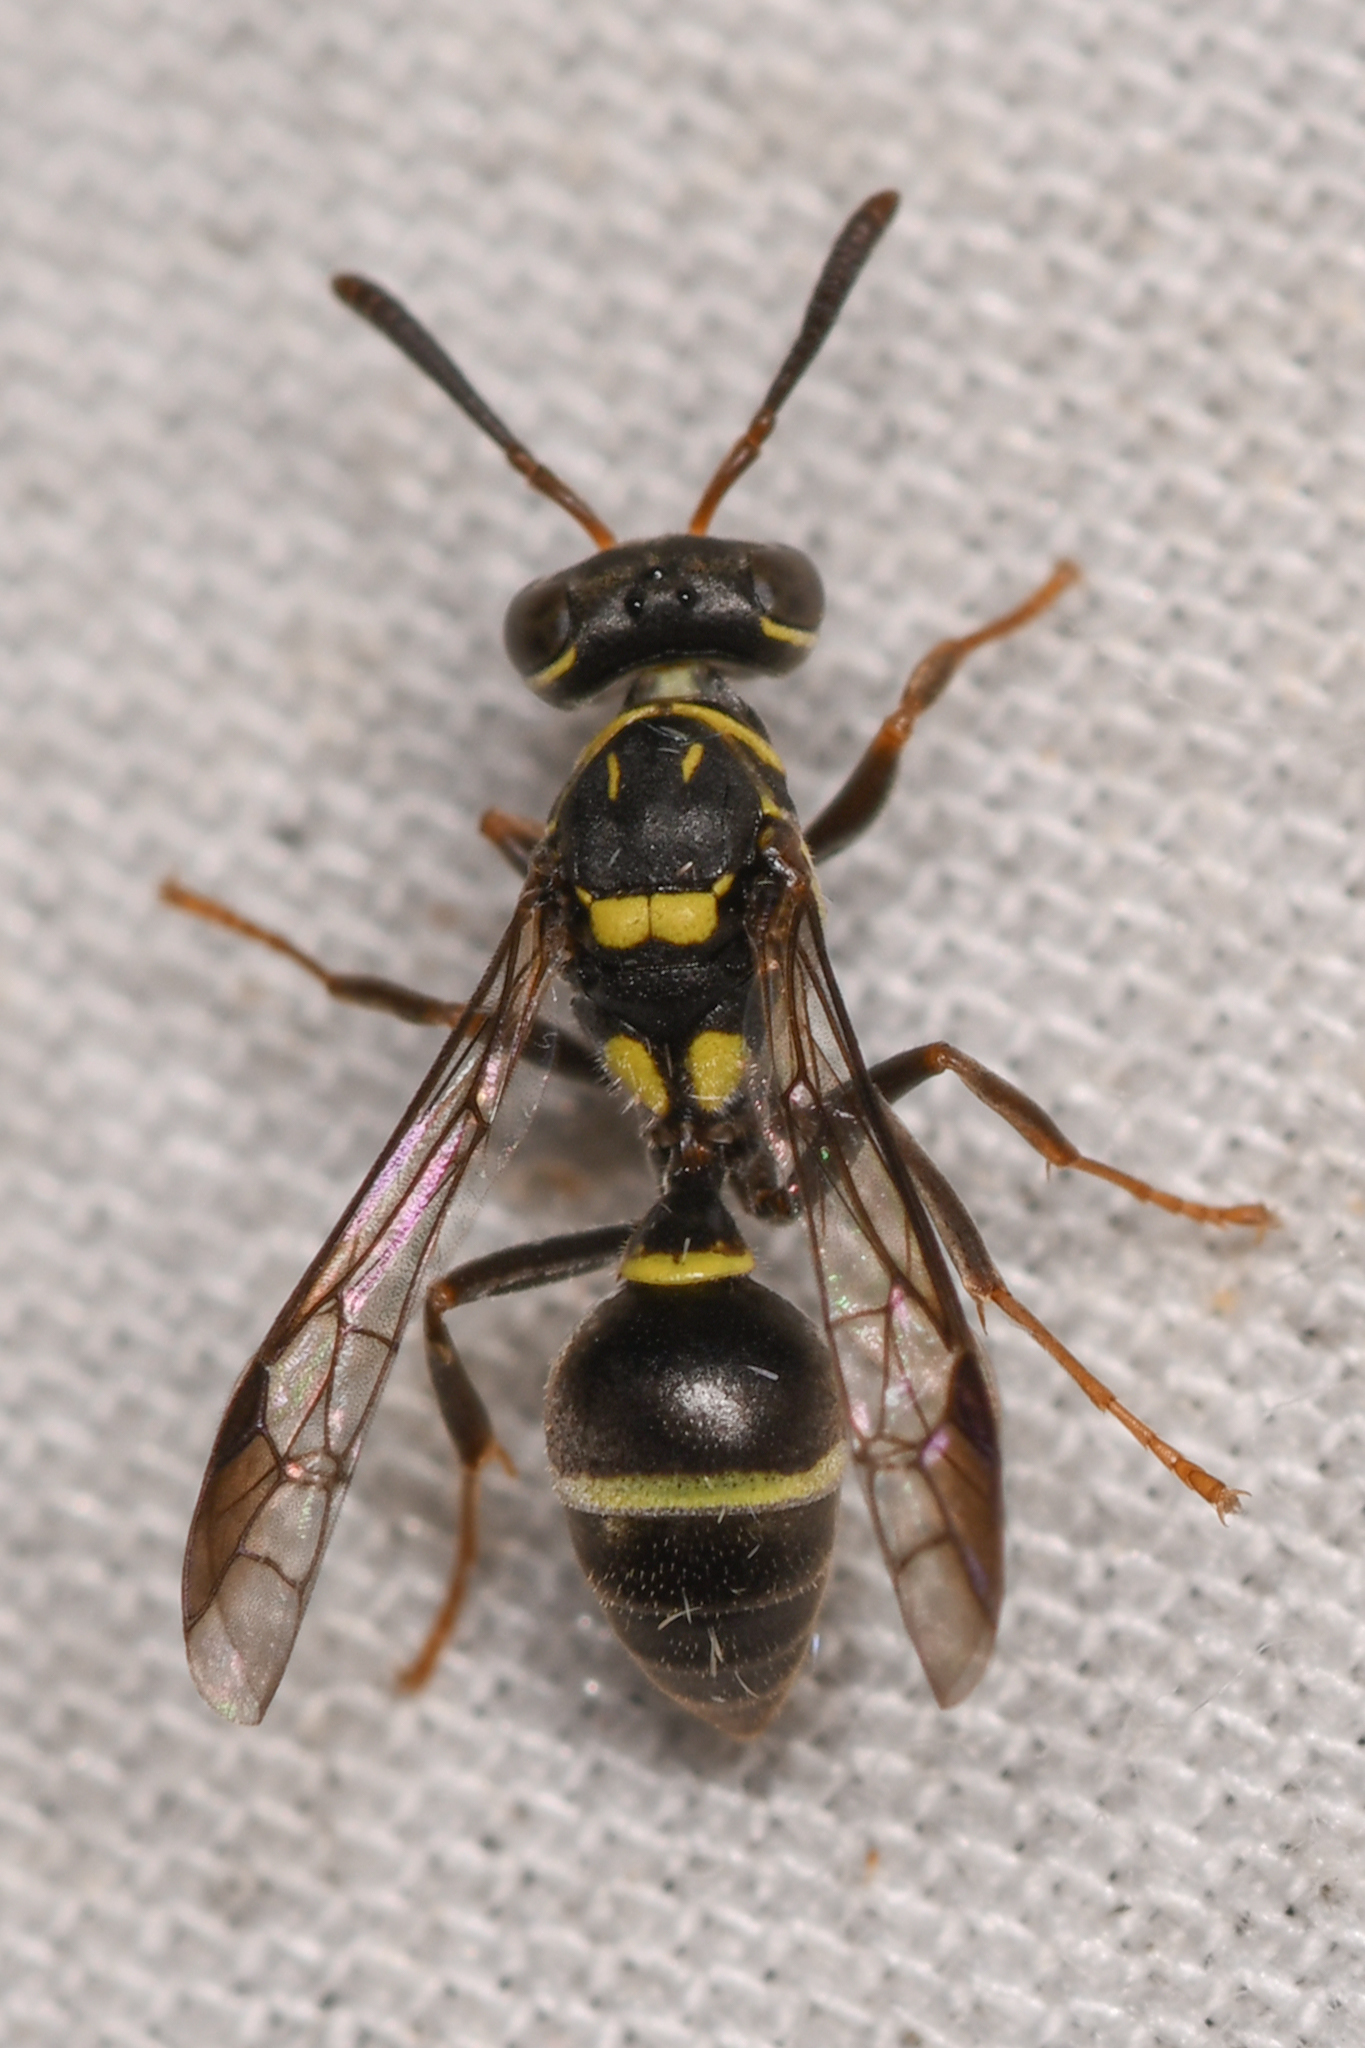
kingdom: Animalia
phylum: Arthropoda
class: Insecta
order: Hymenoptera
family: Vespidae
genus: Protopolybia
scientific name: Protopolybia collombiana
